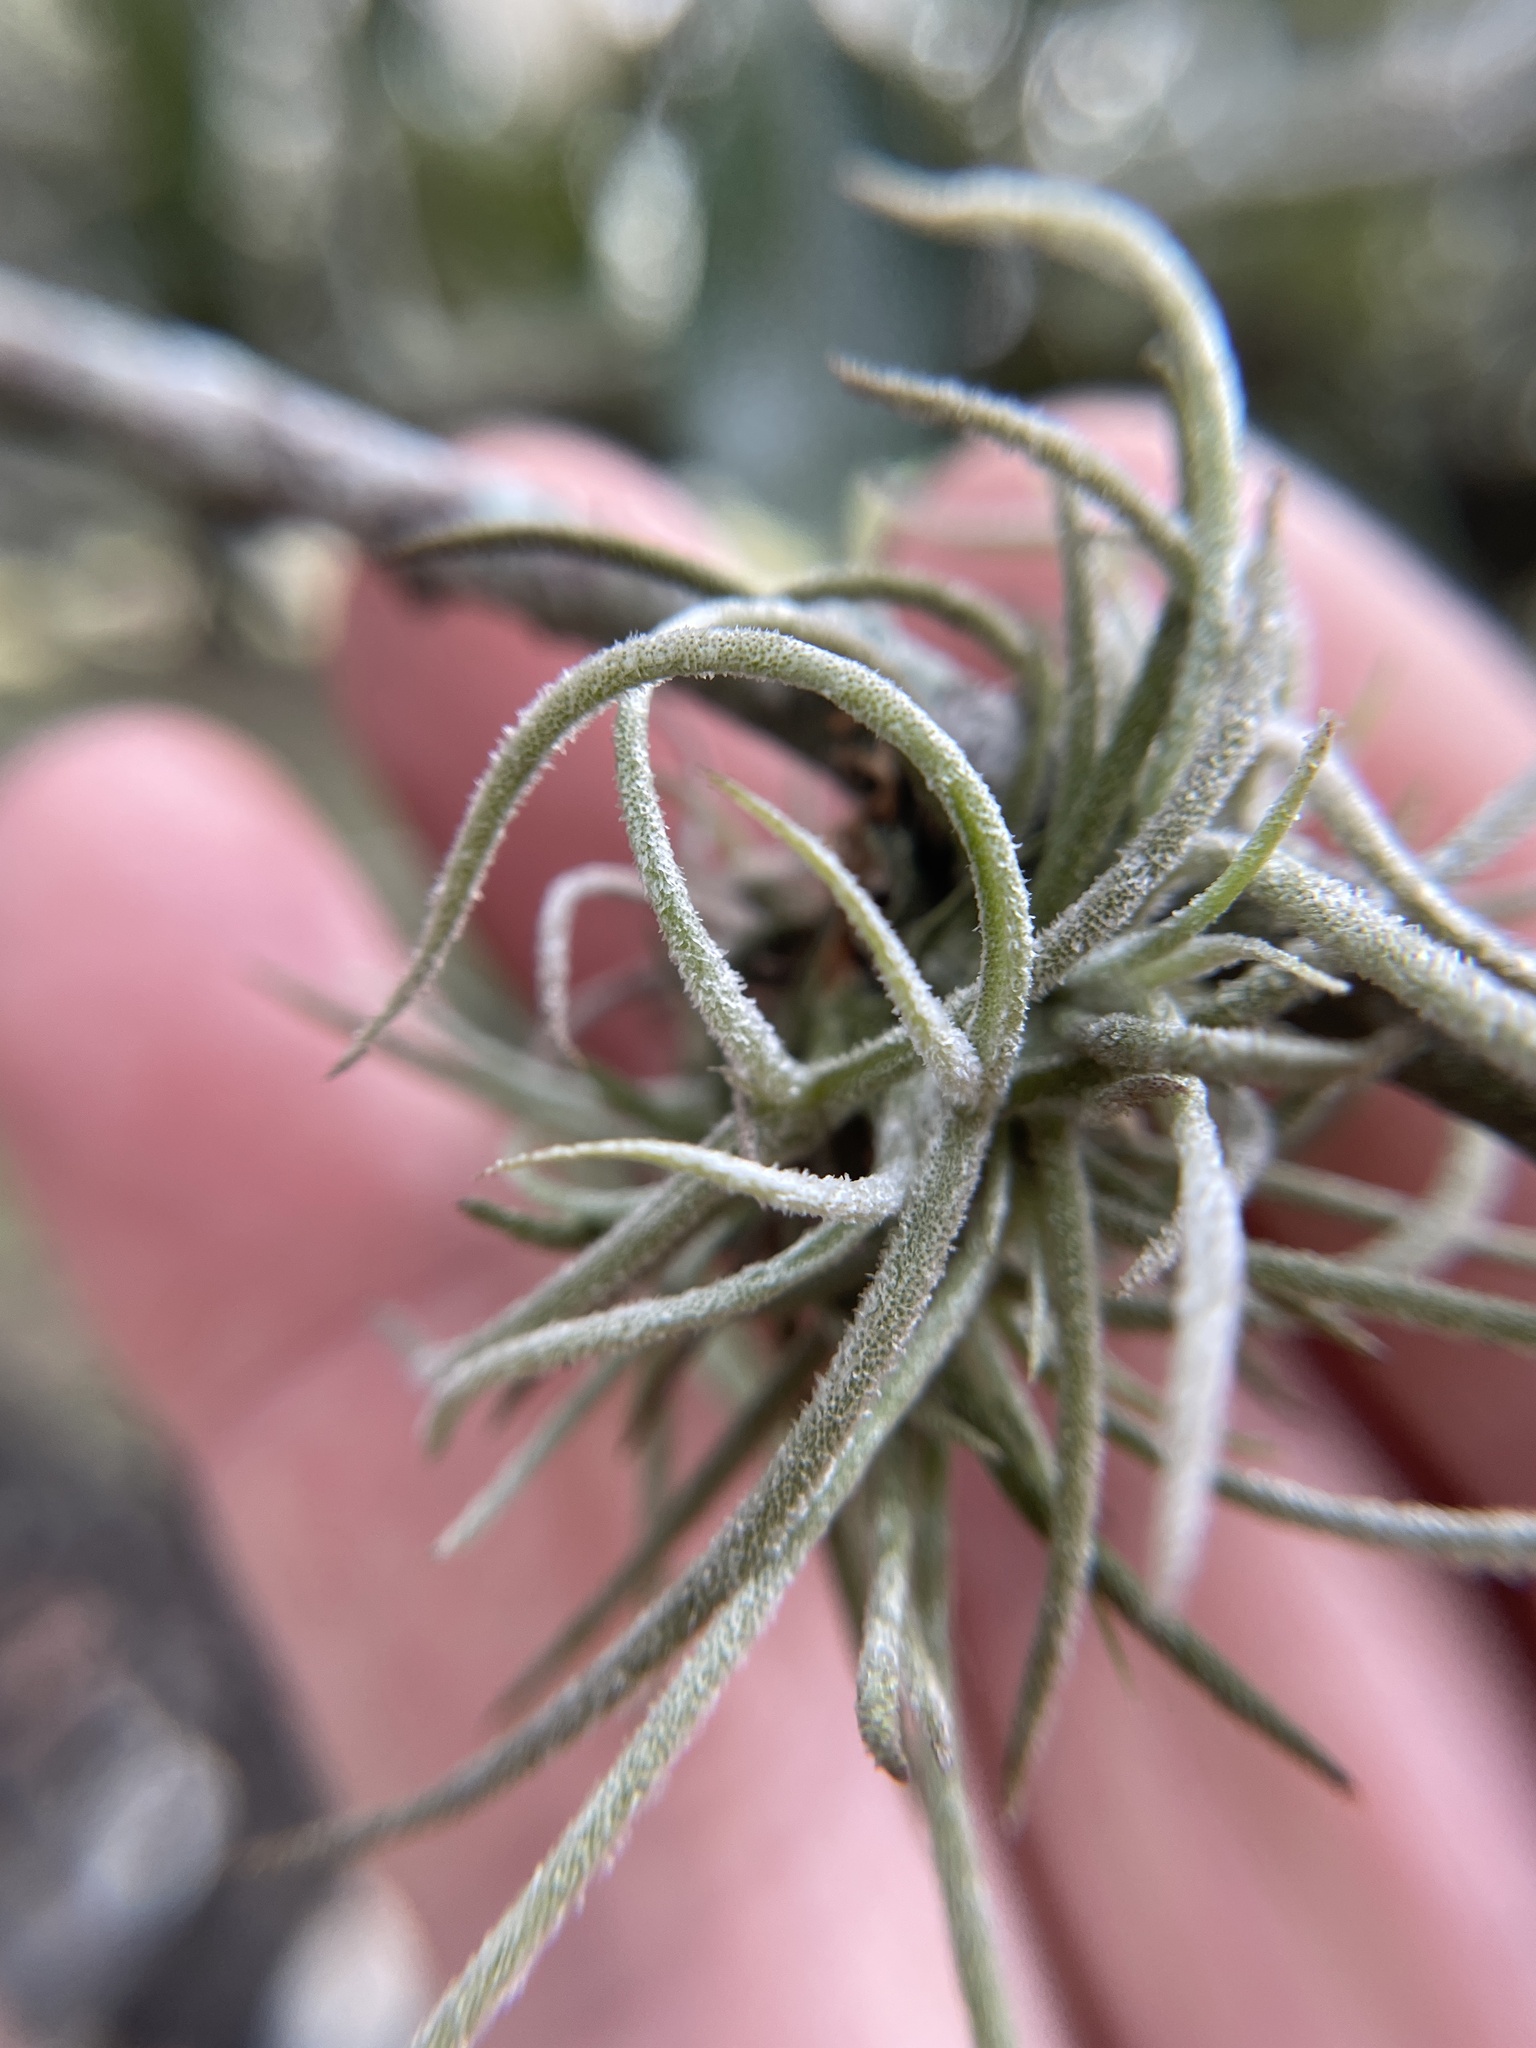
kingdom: Plantae
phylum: Tracheophyta
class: Liliopsida
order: Poales
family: Bromeliaceae
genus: Tillandsia
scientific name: Tillandsia recurvata
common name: Small ballmoss
